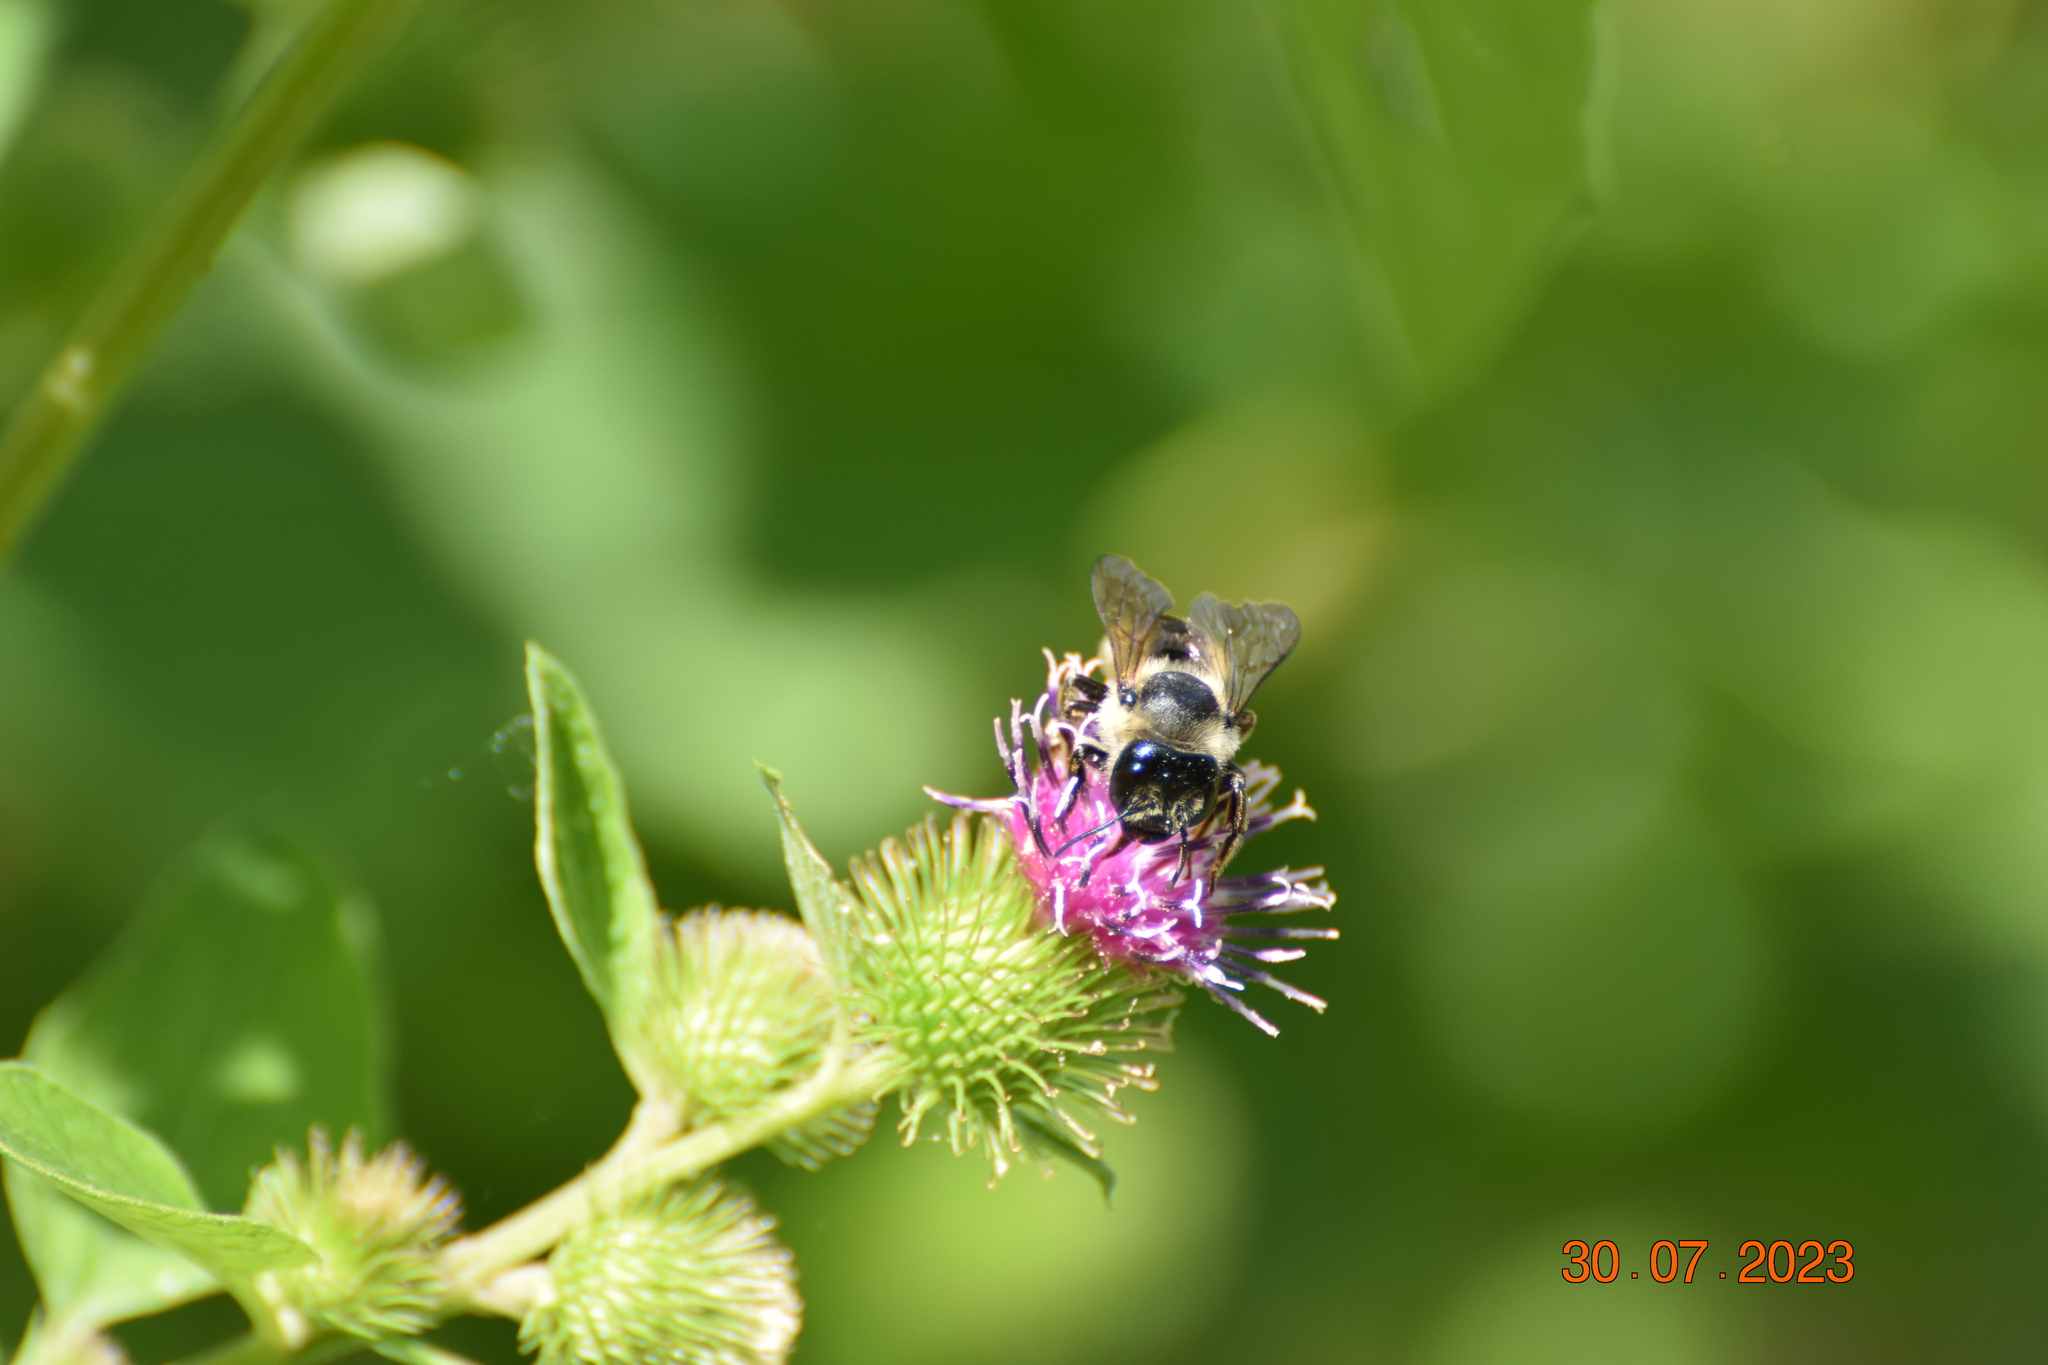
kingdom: Animalia
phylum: Arthropoda
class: Insecta
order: Hymenoptera
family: Megachilidae
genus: Megachile
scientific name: Megachile inermis
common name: Unarmed leafcutter bee
